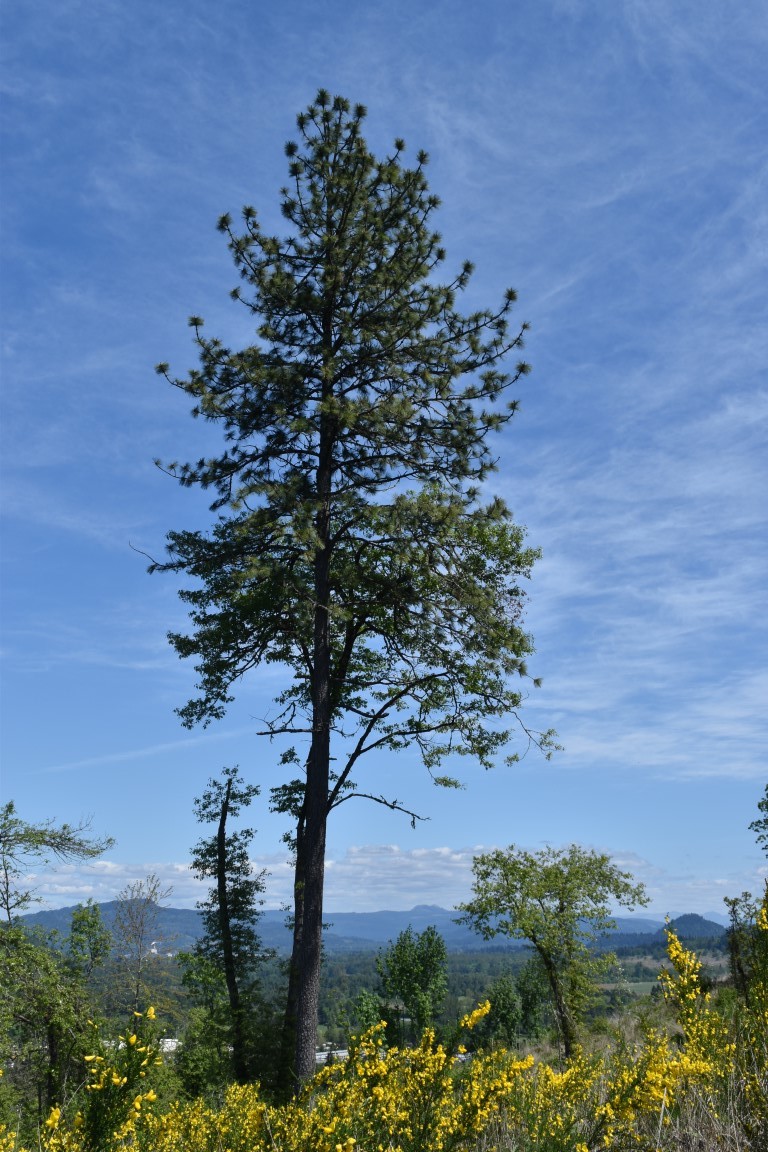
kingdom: Plantae
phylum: Tracheophyta
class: Pinopsida
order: Pinales
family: Pinaceae
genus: Pinus
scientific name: Pinus ponderosa
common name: Western yellow-pine
